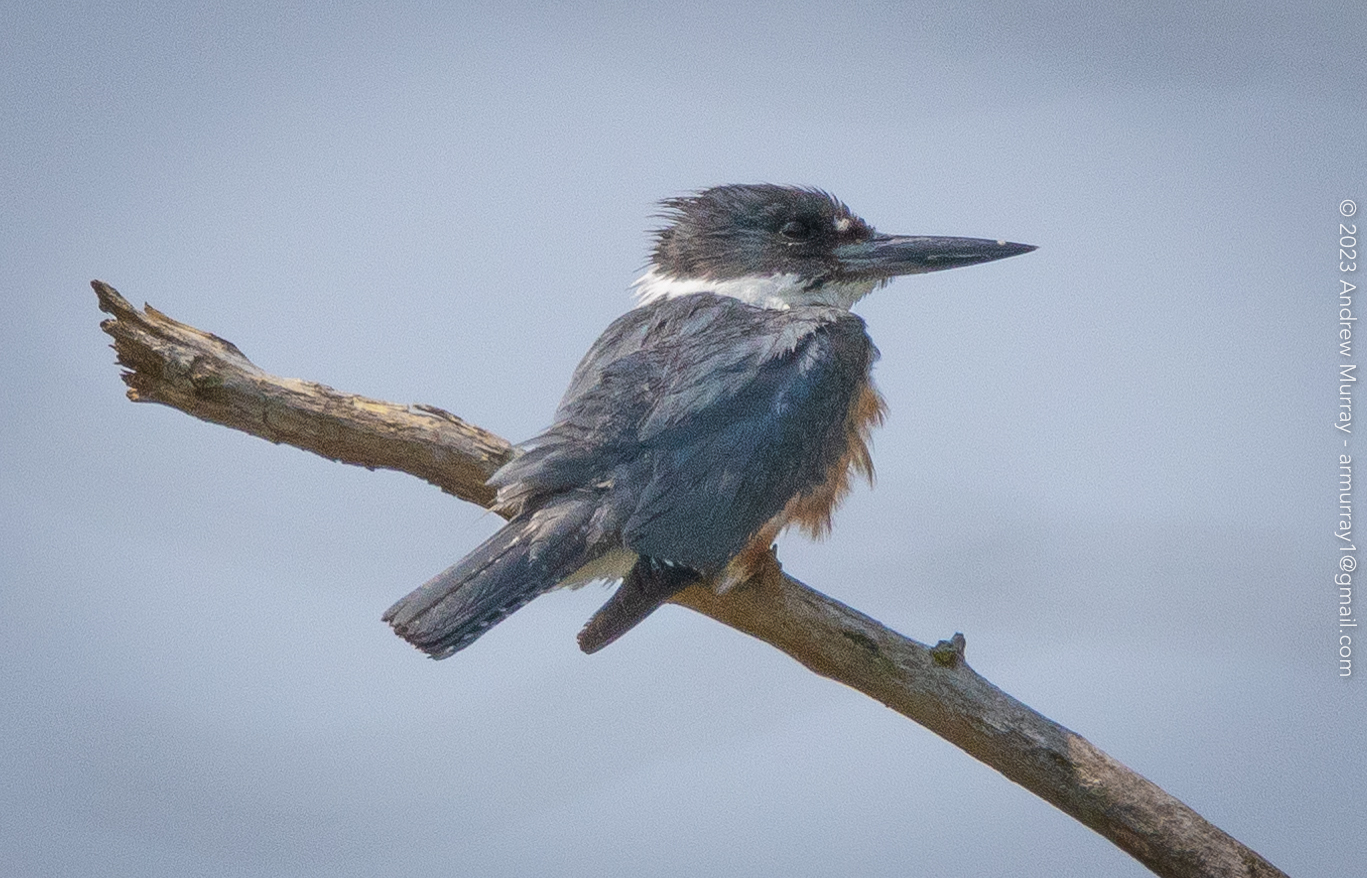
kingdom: Animalia
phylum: Chordata
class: Aves
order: Coraciiformes
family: Alcedinidae
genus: Megaceryle
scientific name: Megaceryle alcyon
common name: Belted kingfisher
